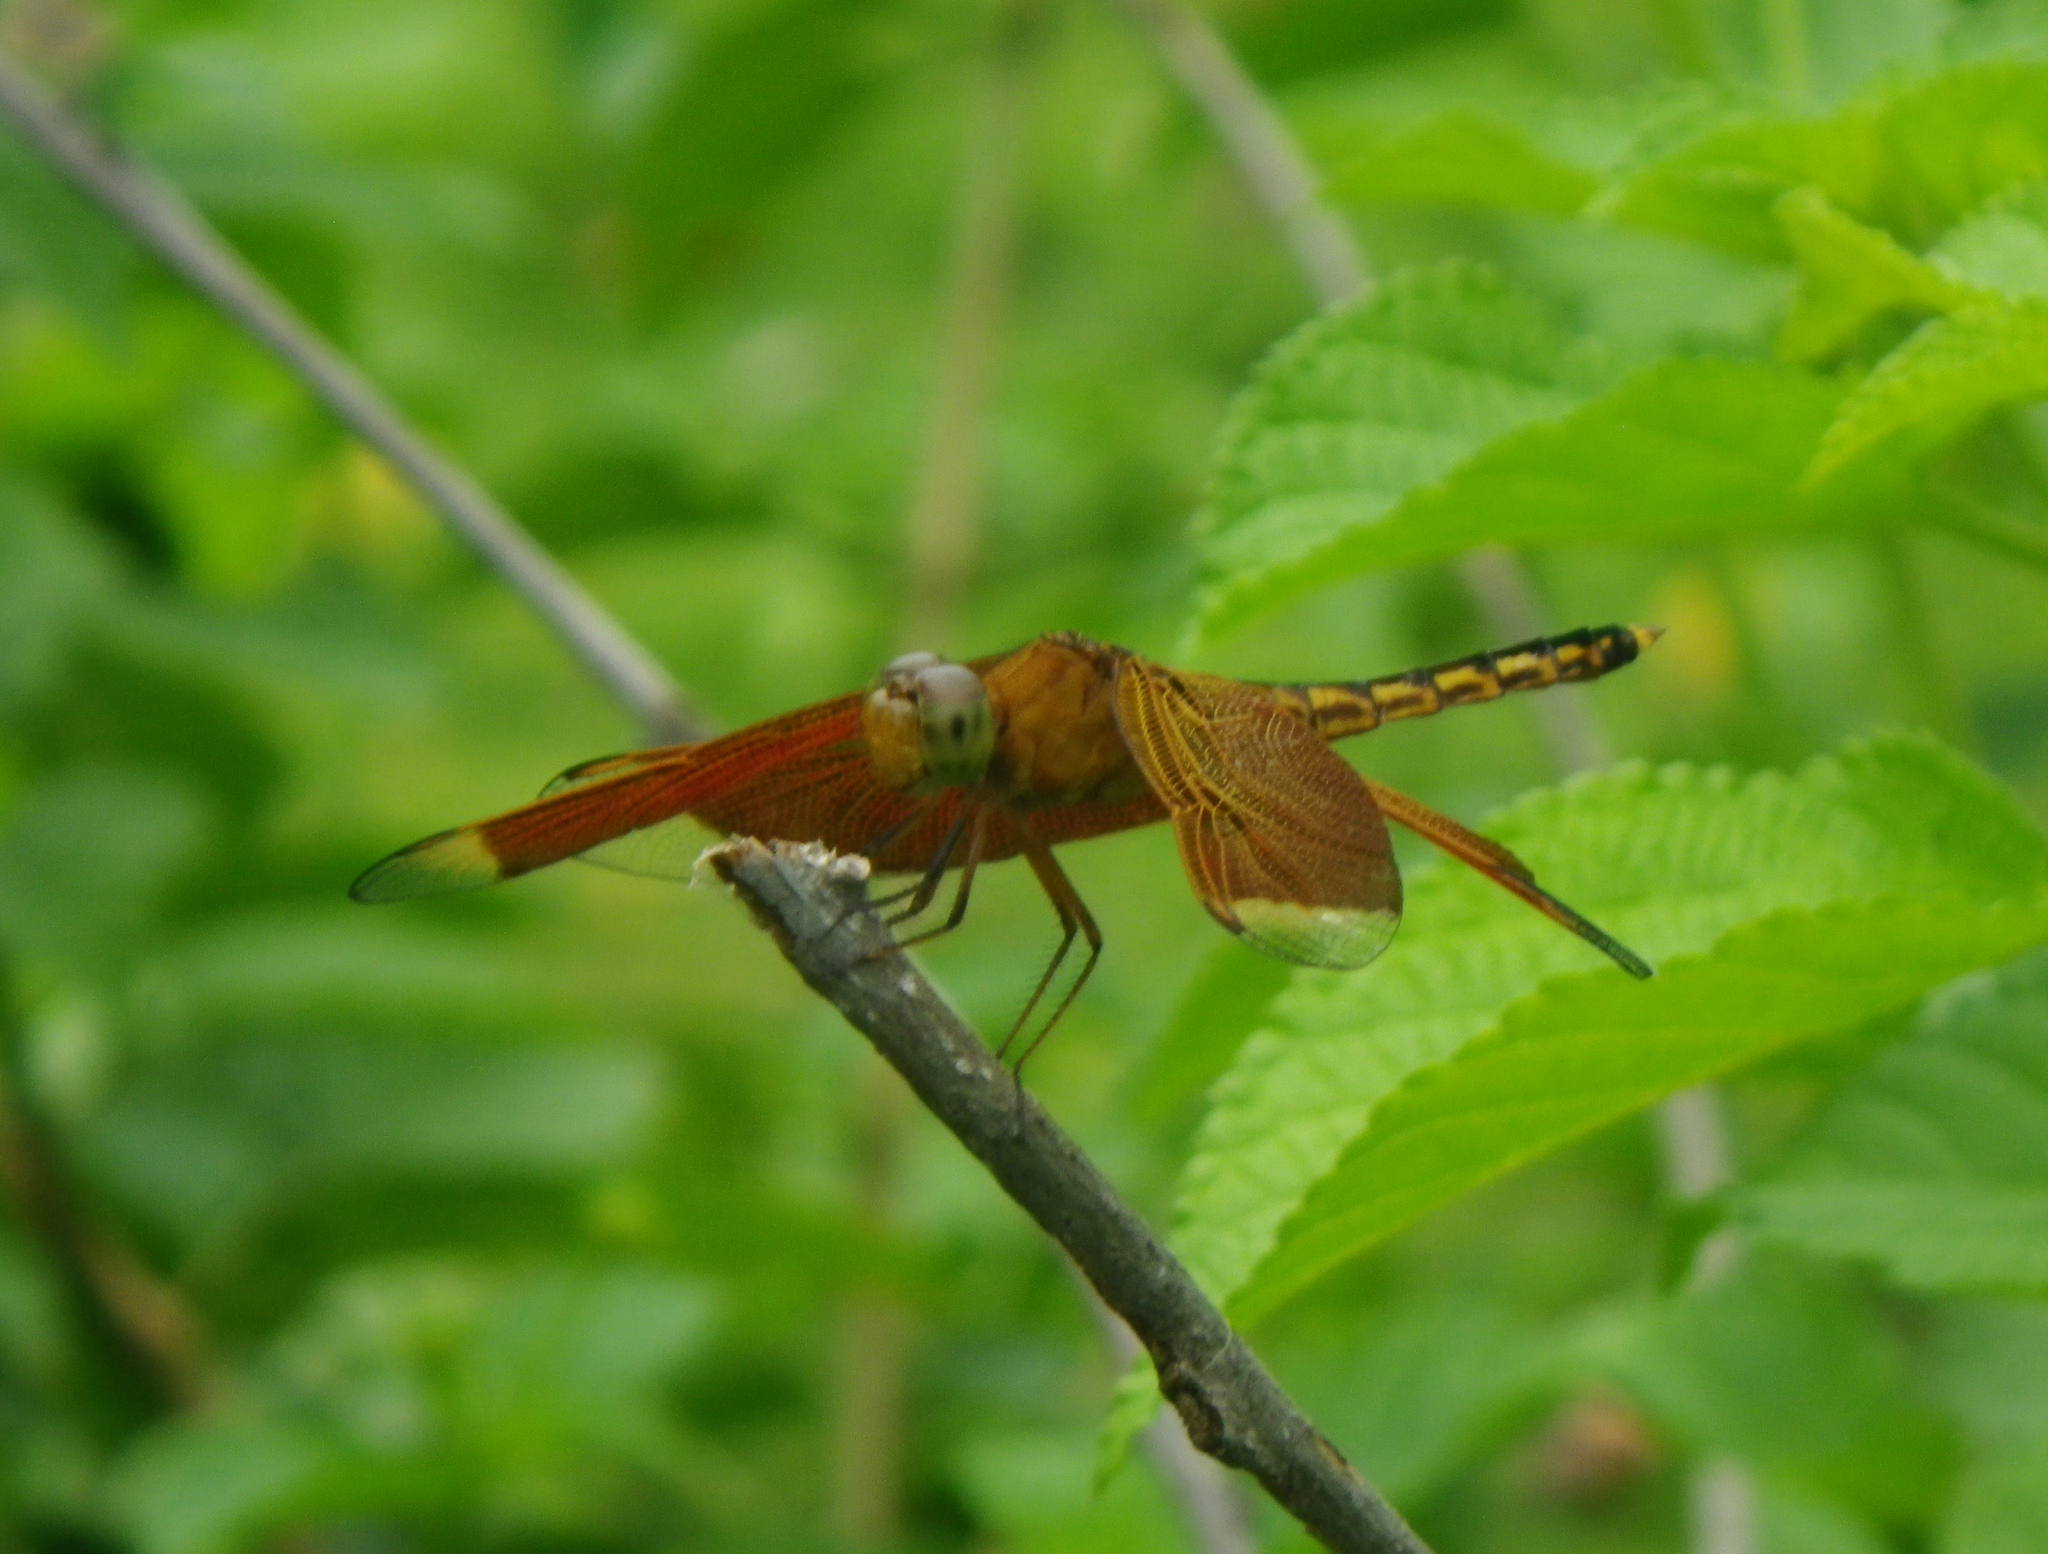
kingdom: Animalia
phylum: Arthropoda
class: Insecta
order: Odonata
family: Libellulidae
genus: Neurothemis
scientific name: Neurothemis terminata
